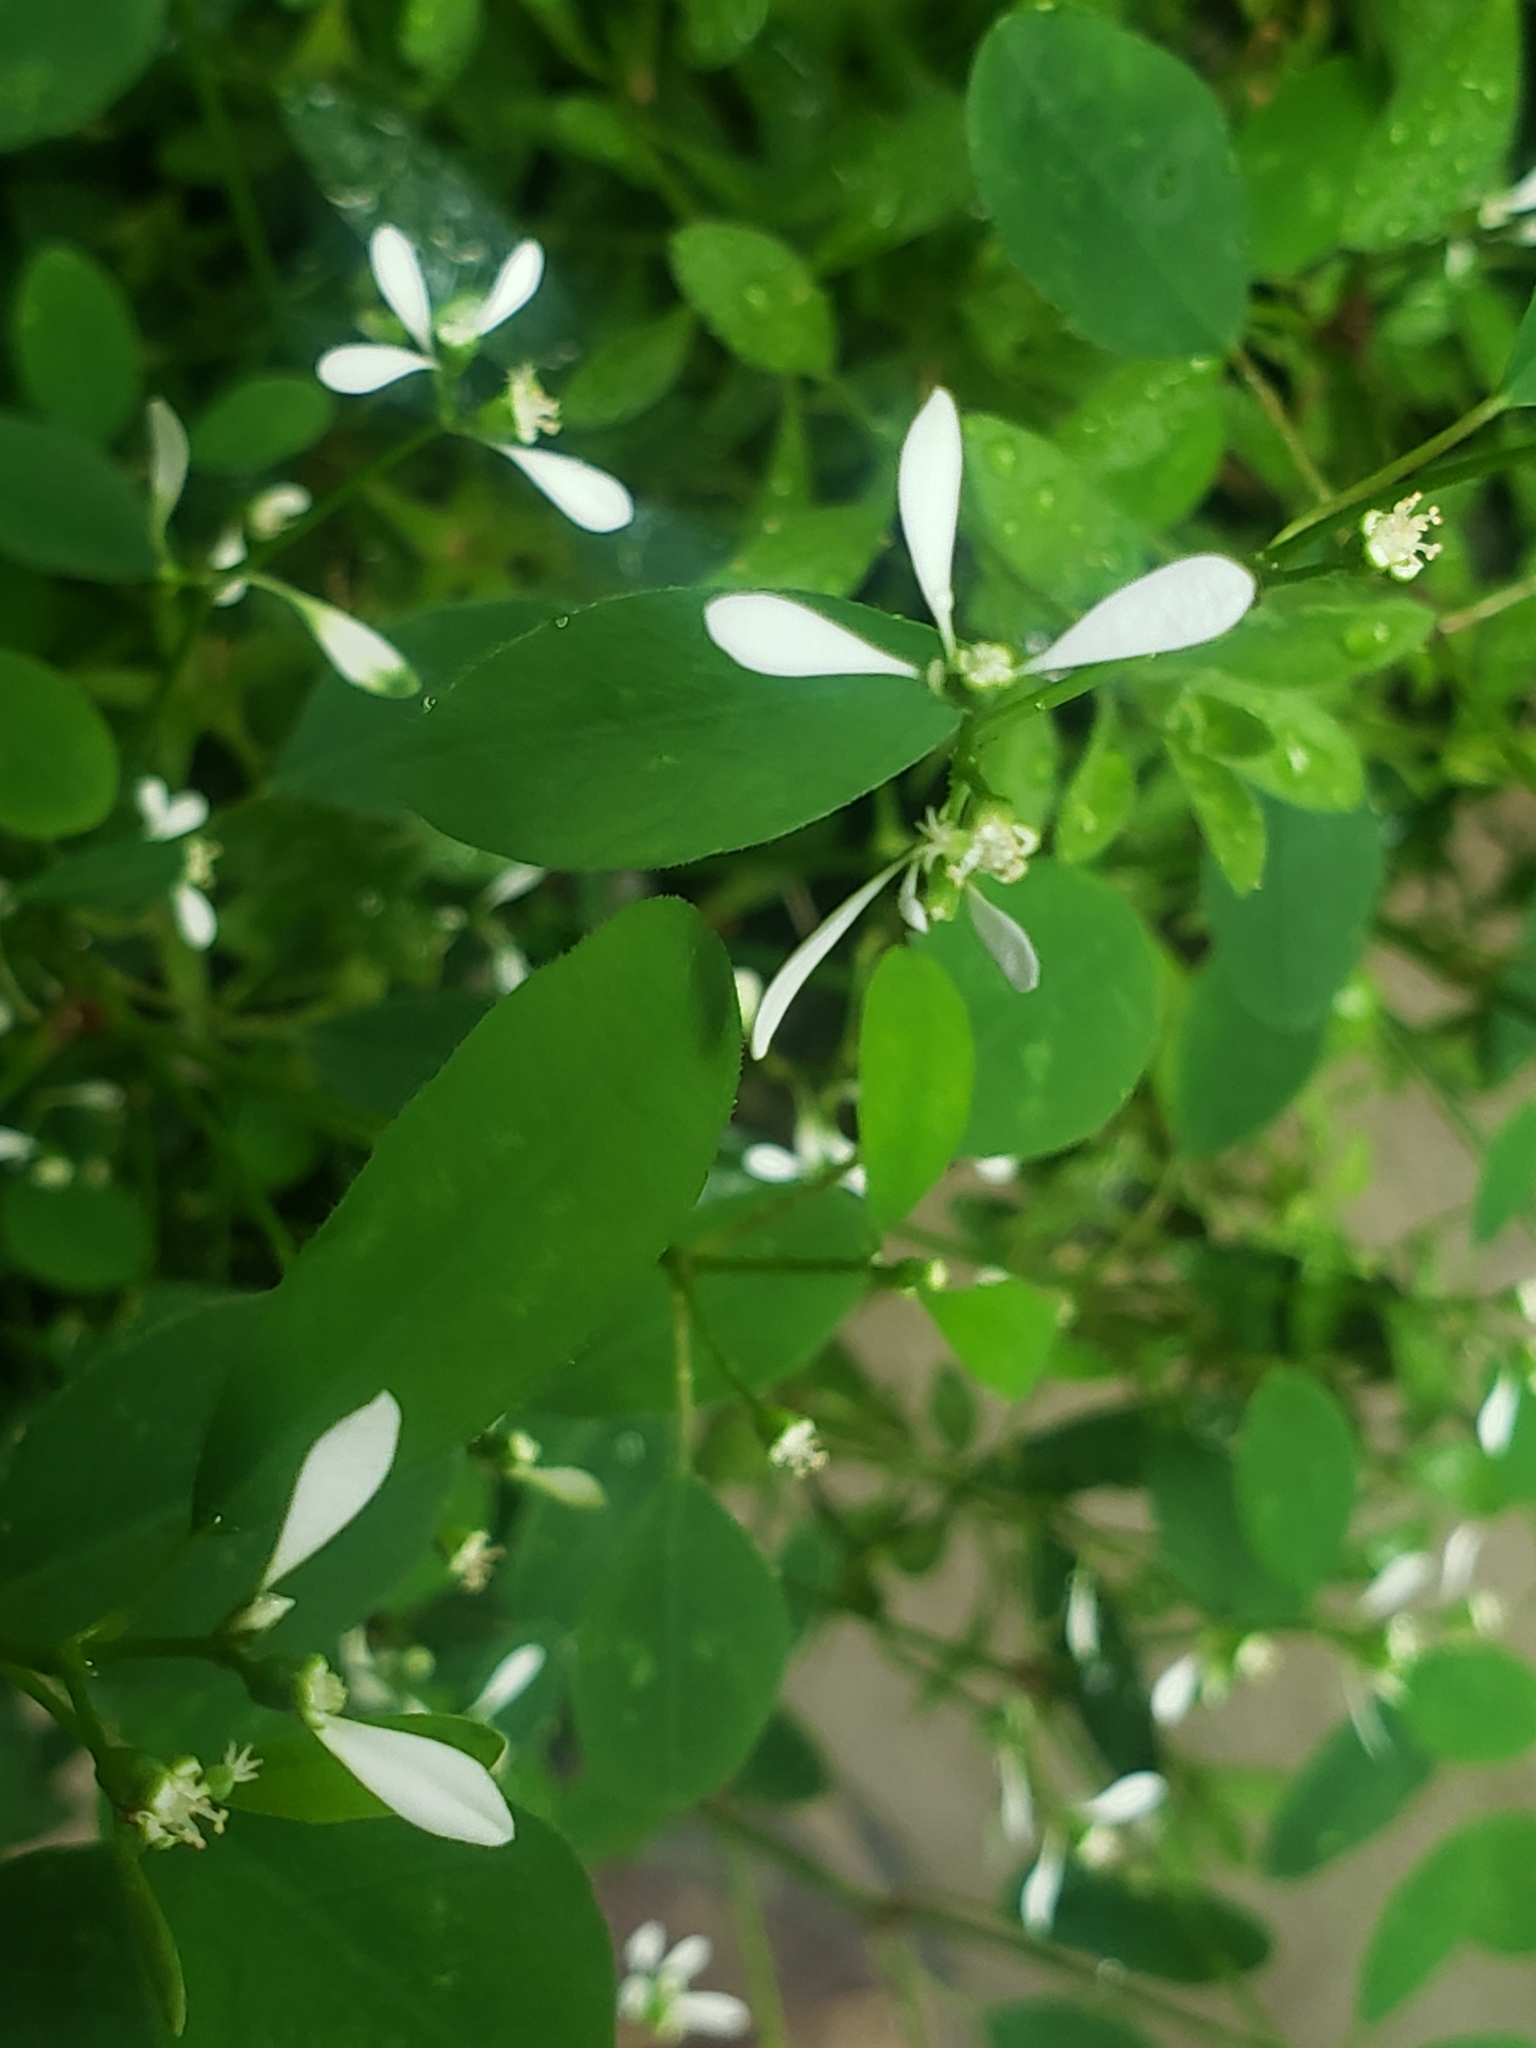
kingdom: Plantae
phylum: Tracheophyta
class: Magnoliopsida
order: Malpighiales
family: Euphorbiaceae
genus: Euphorbia
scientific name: Euphorbia graminea
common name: Grassleaf spurge
